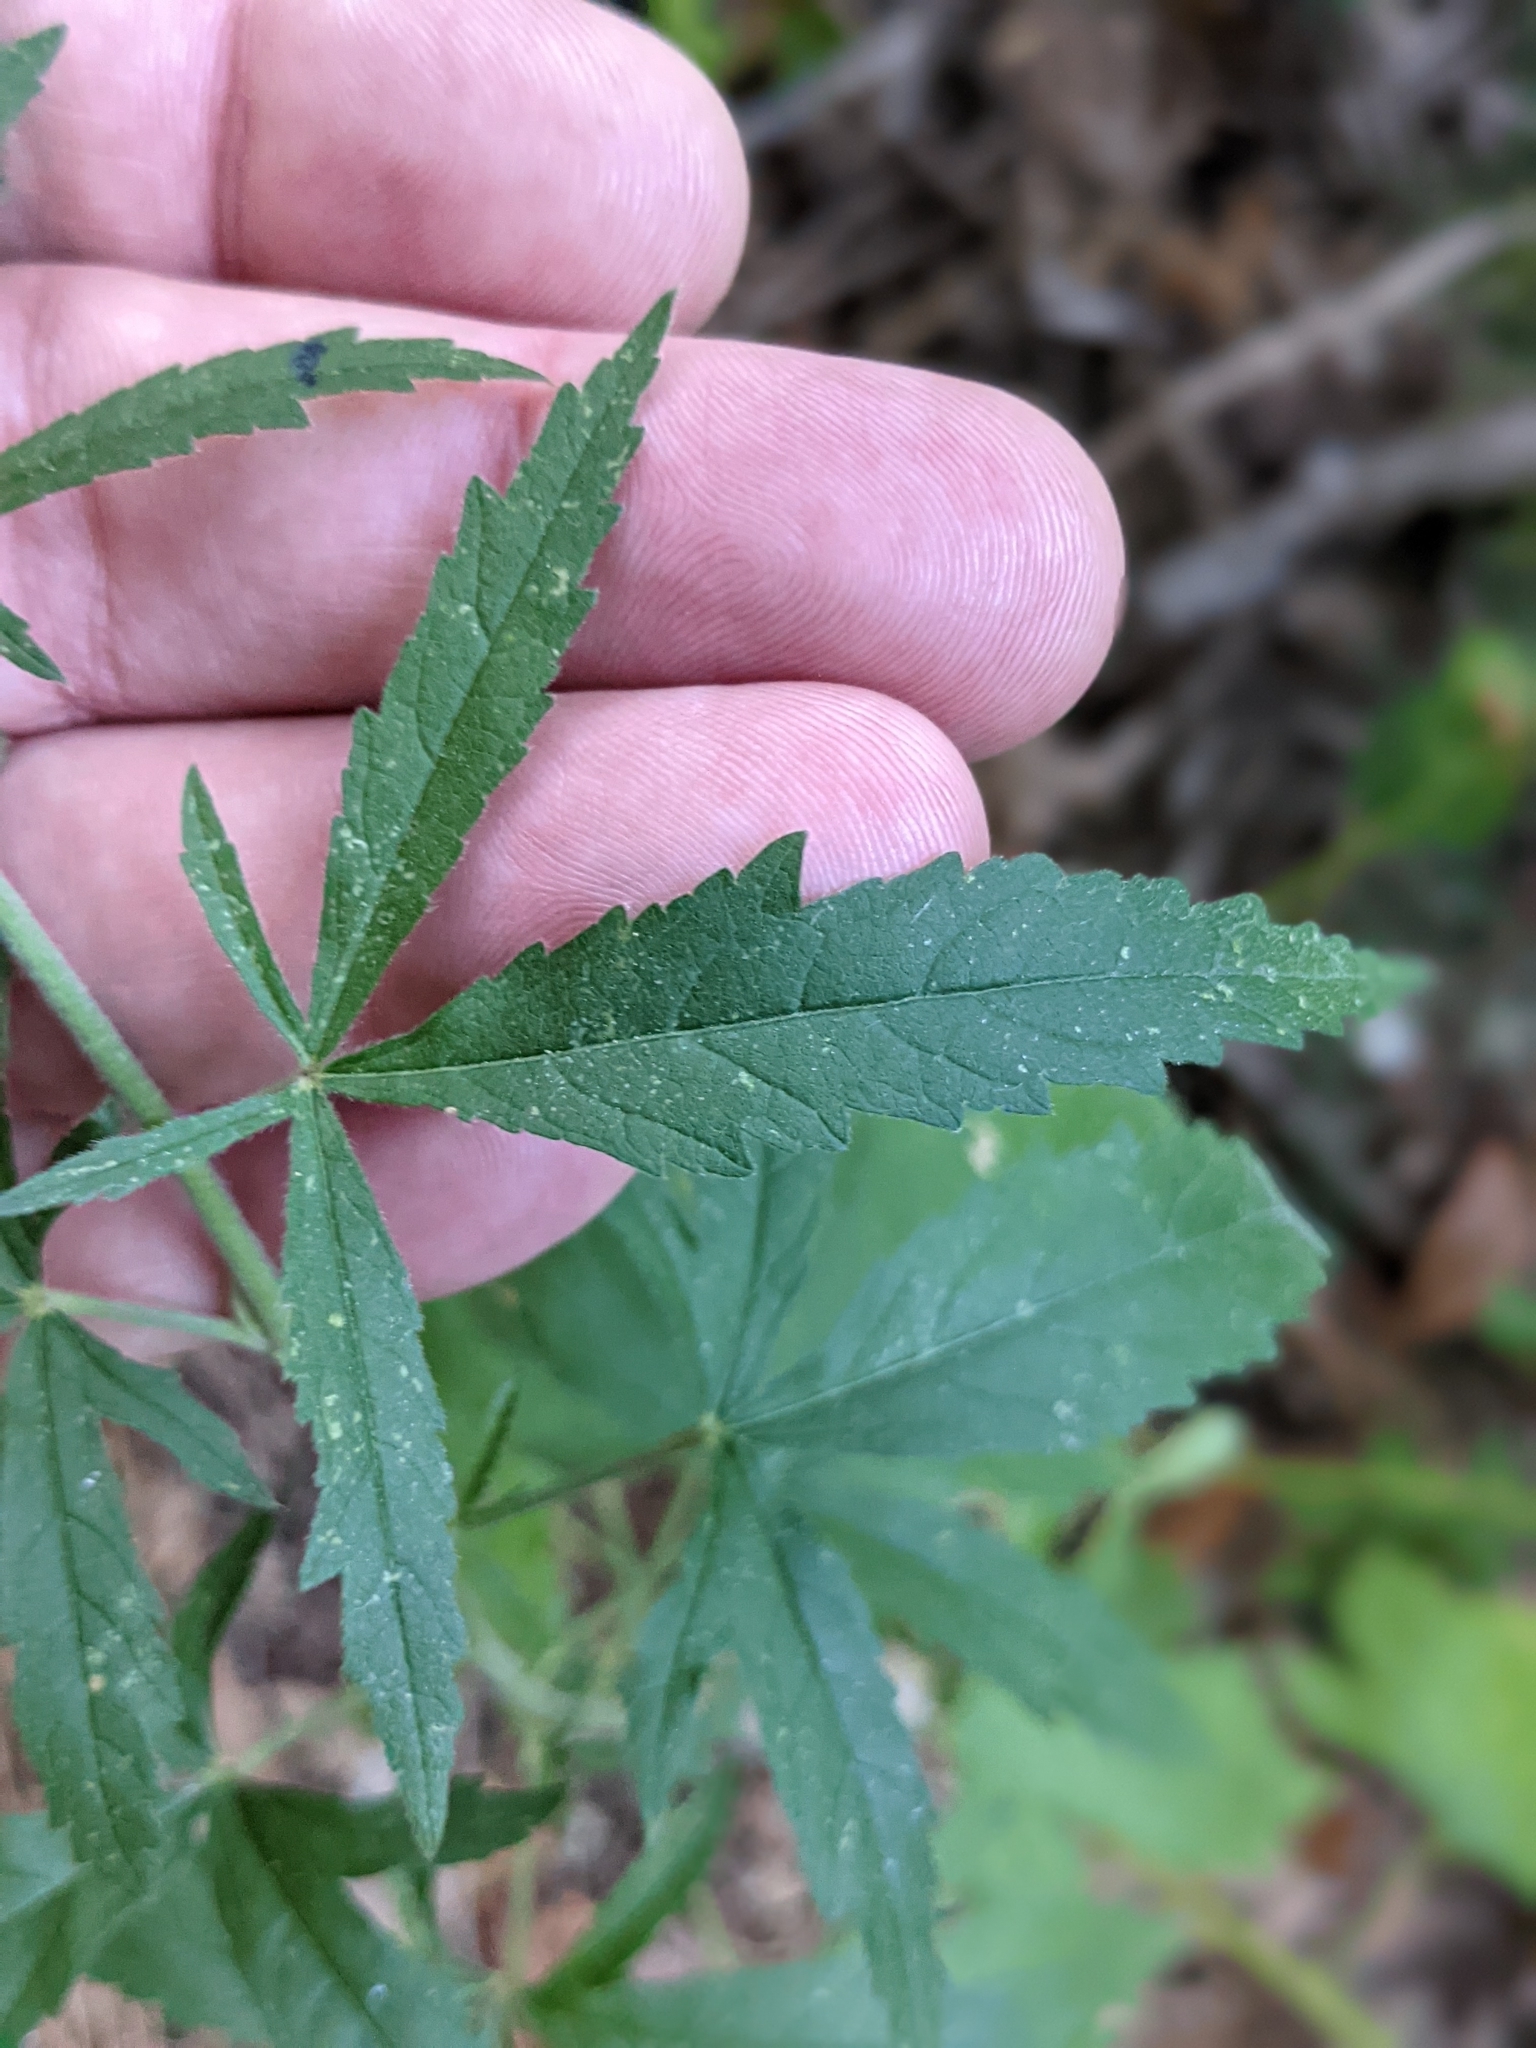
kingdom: Plantae
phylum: Tracheophyta
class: Magnoliopsida
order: Malvales
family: Malvaceae
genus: Althaea
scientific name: Althaea cannabina
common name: Palm-leaf marshmallow
